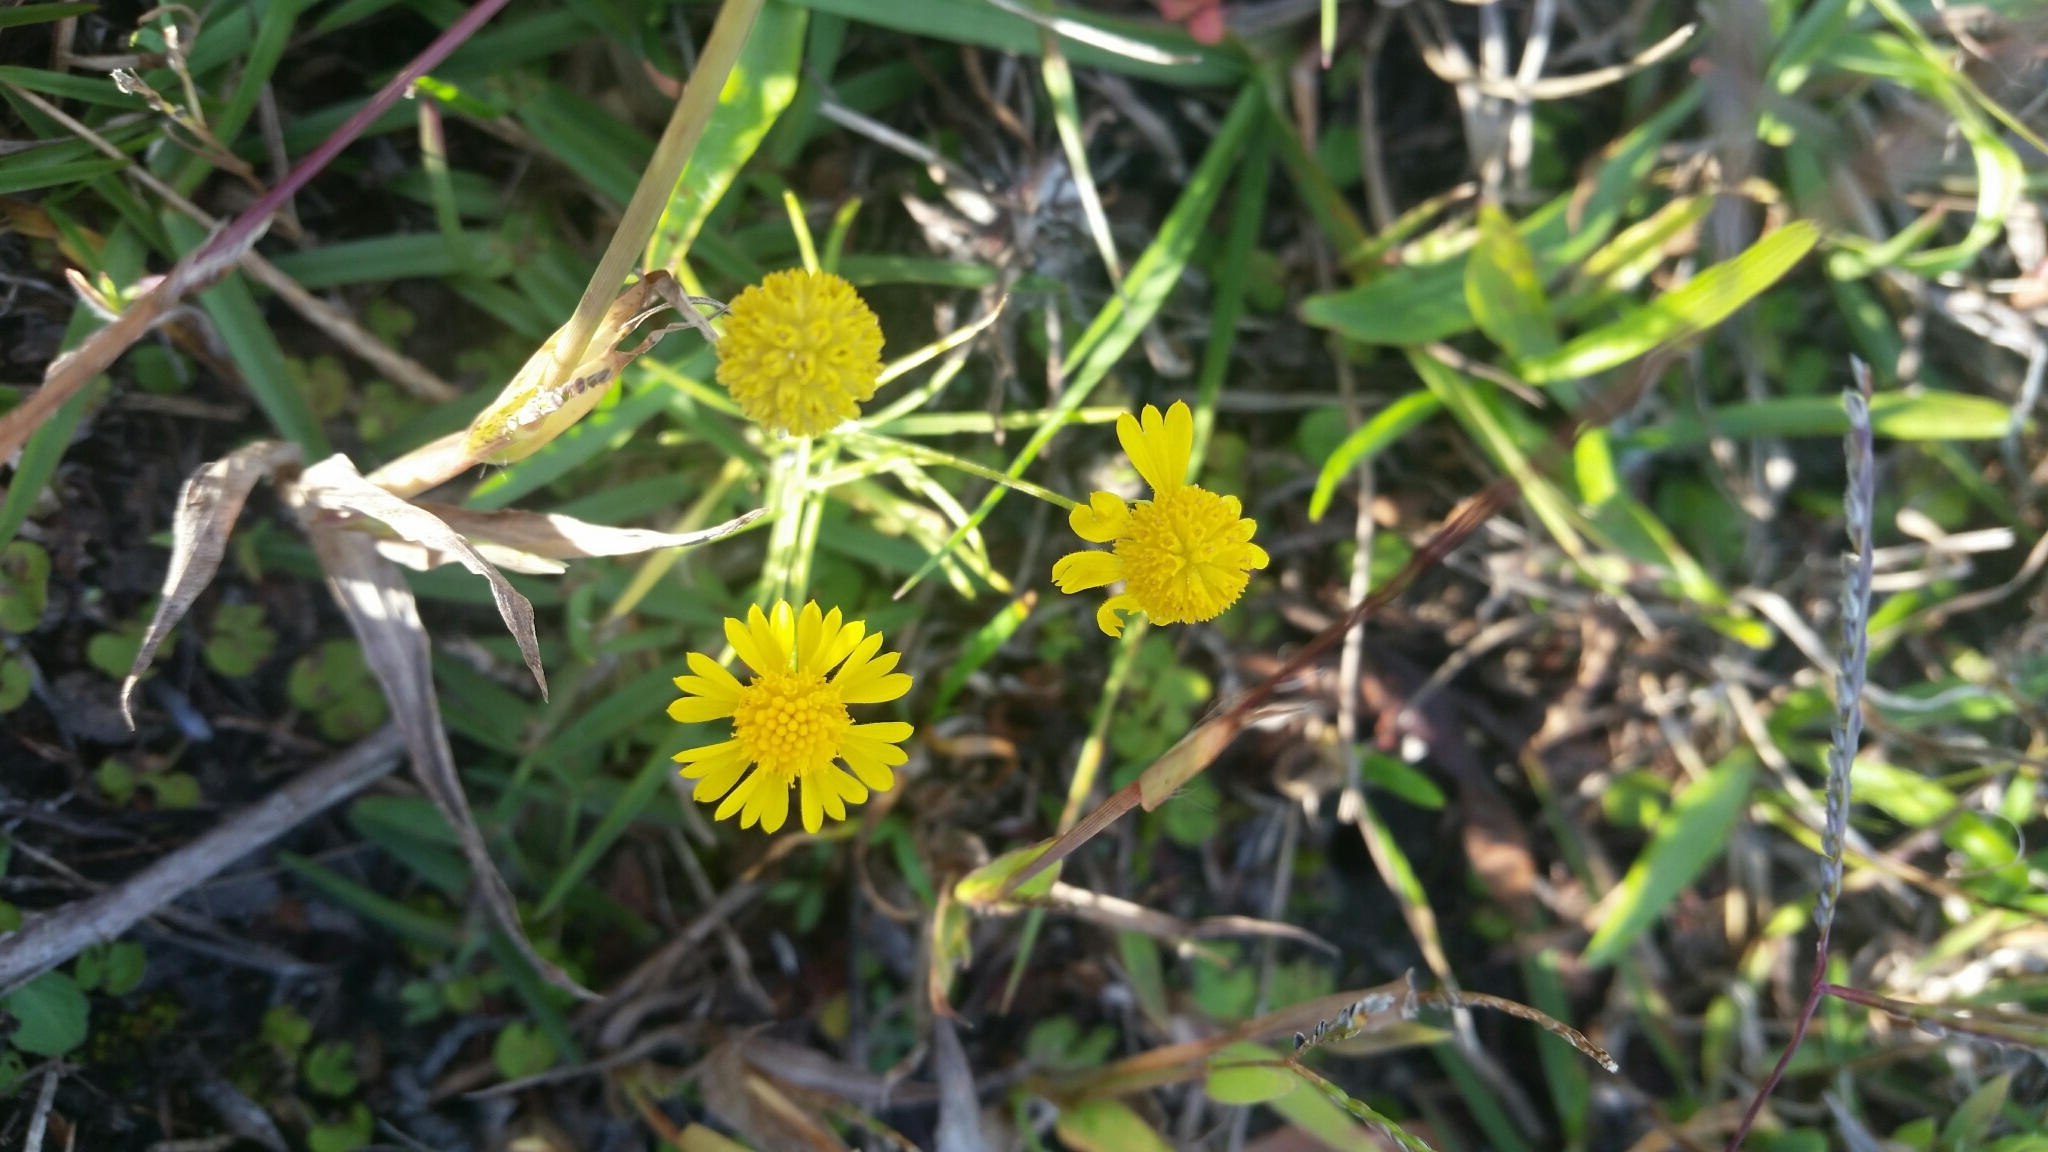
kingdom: Plantae
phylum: Tracheophyta
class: Magnoliopsida
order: Asterales
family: Asteraceae
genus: Helenium
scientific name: Helenium amarum
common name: Bitter sneezeweed
